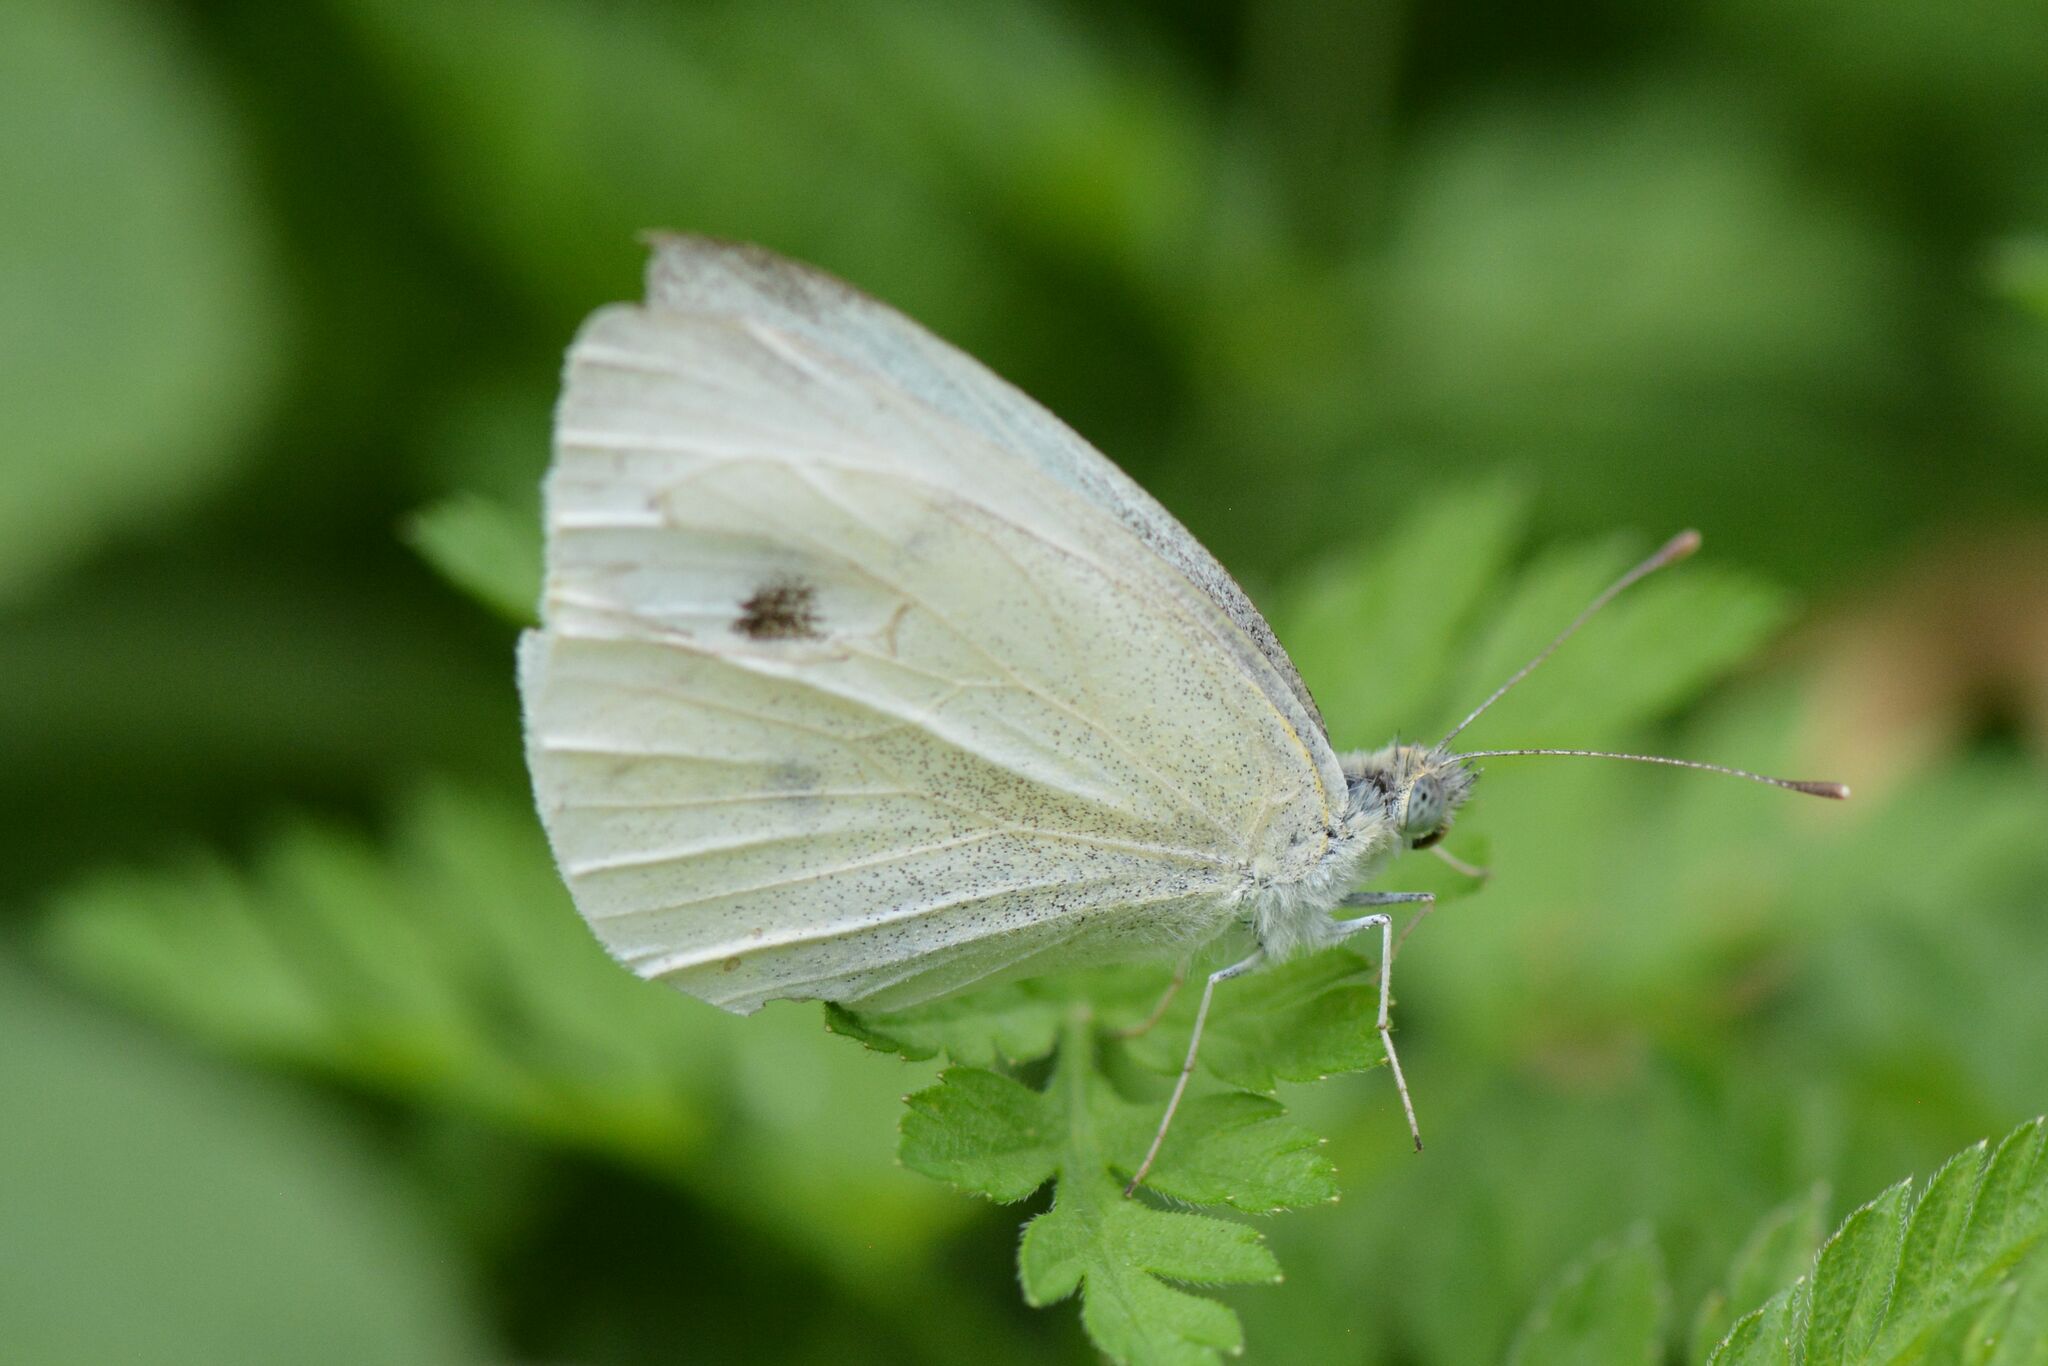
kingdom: Animalia
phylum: Arthropoda
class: Insecta
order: Lepidoptera
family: Pieridae
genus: Pieris
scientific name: Pieris rapae
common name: Small white
